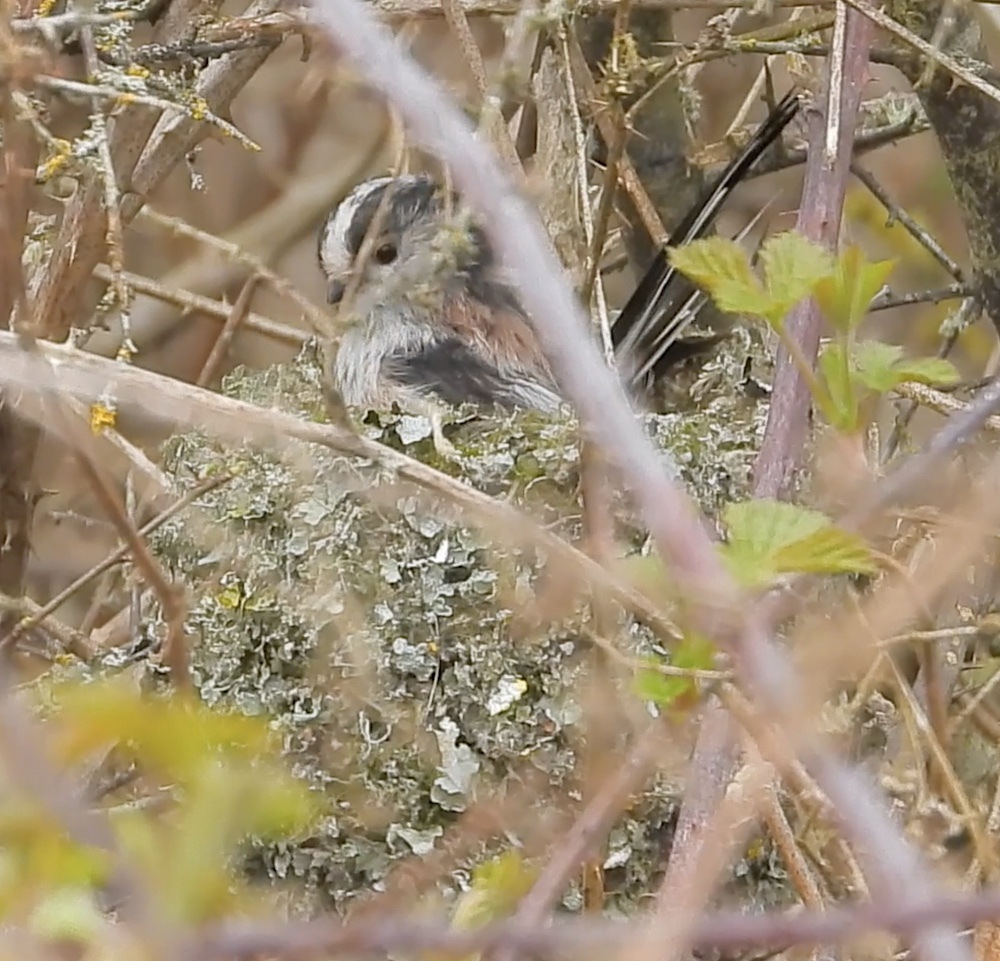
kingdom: Animalia
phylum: Chordata
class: Aves
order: Passeriformes
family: Aegithalidae
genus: Aegithalos
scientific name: Aegithalos caudatus
